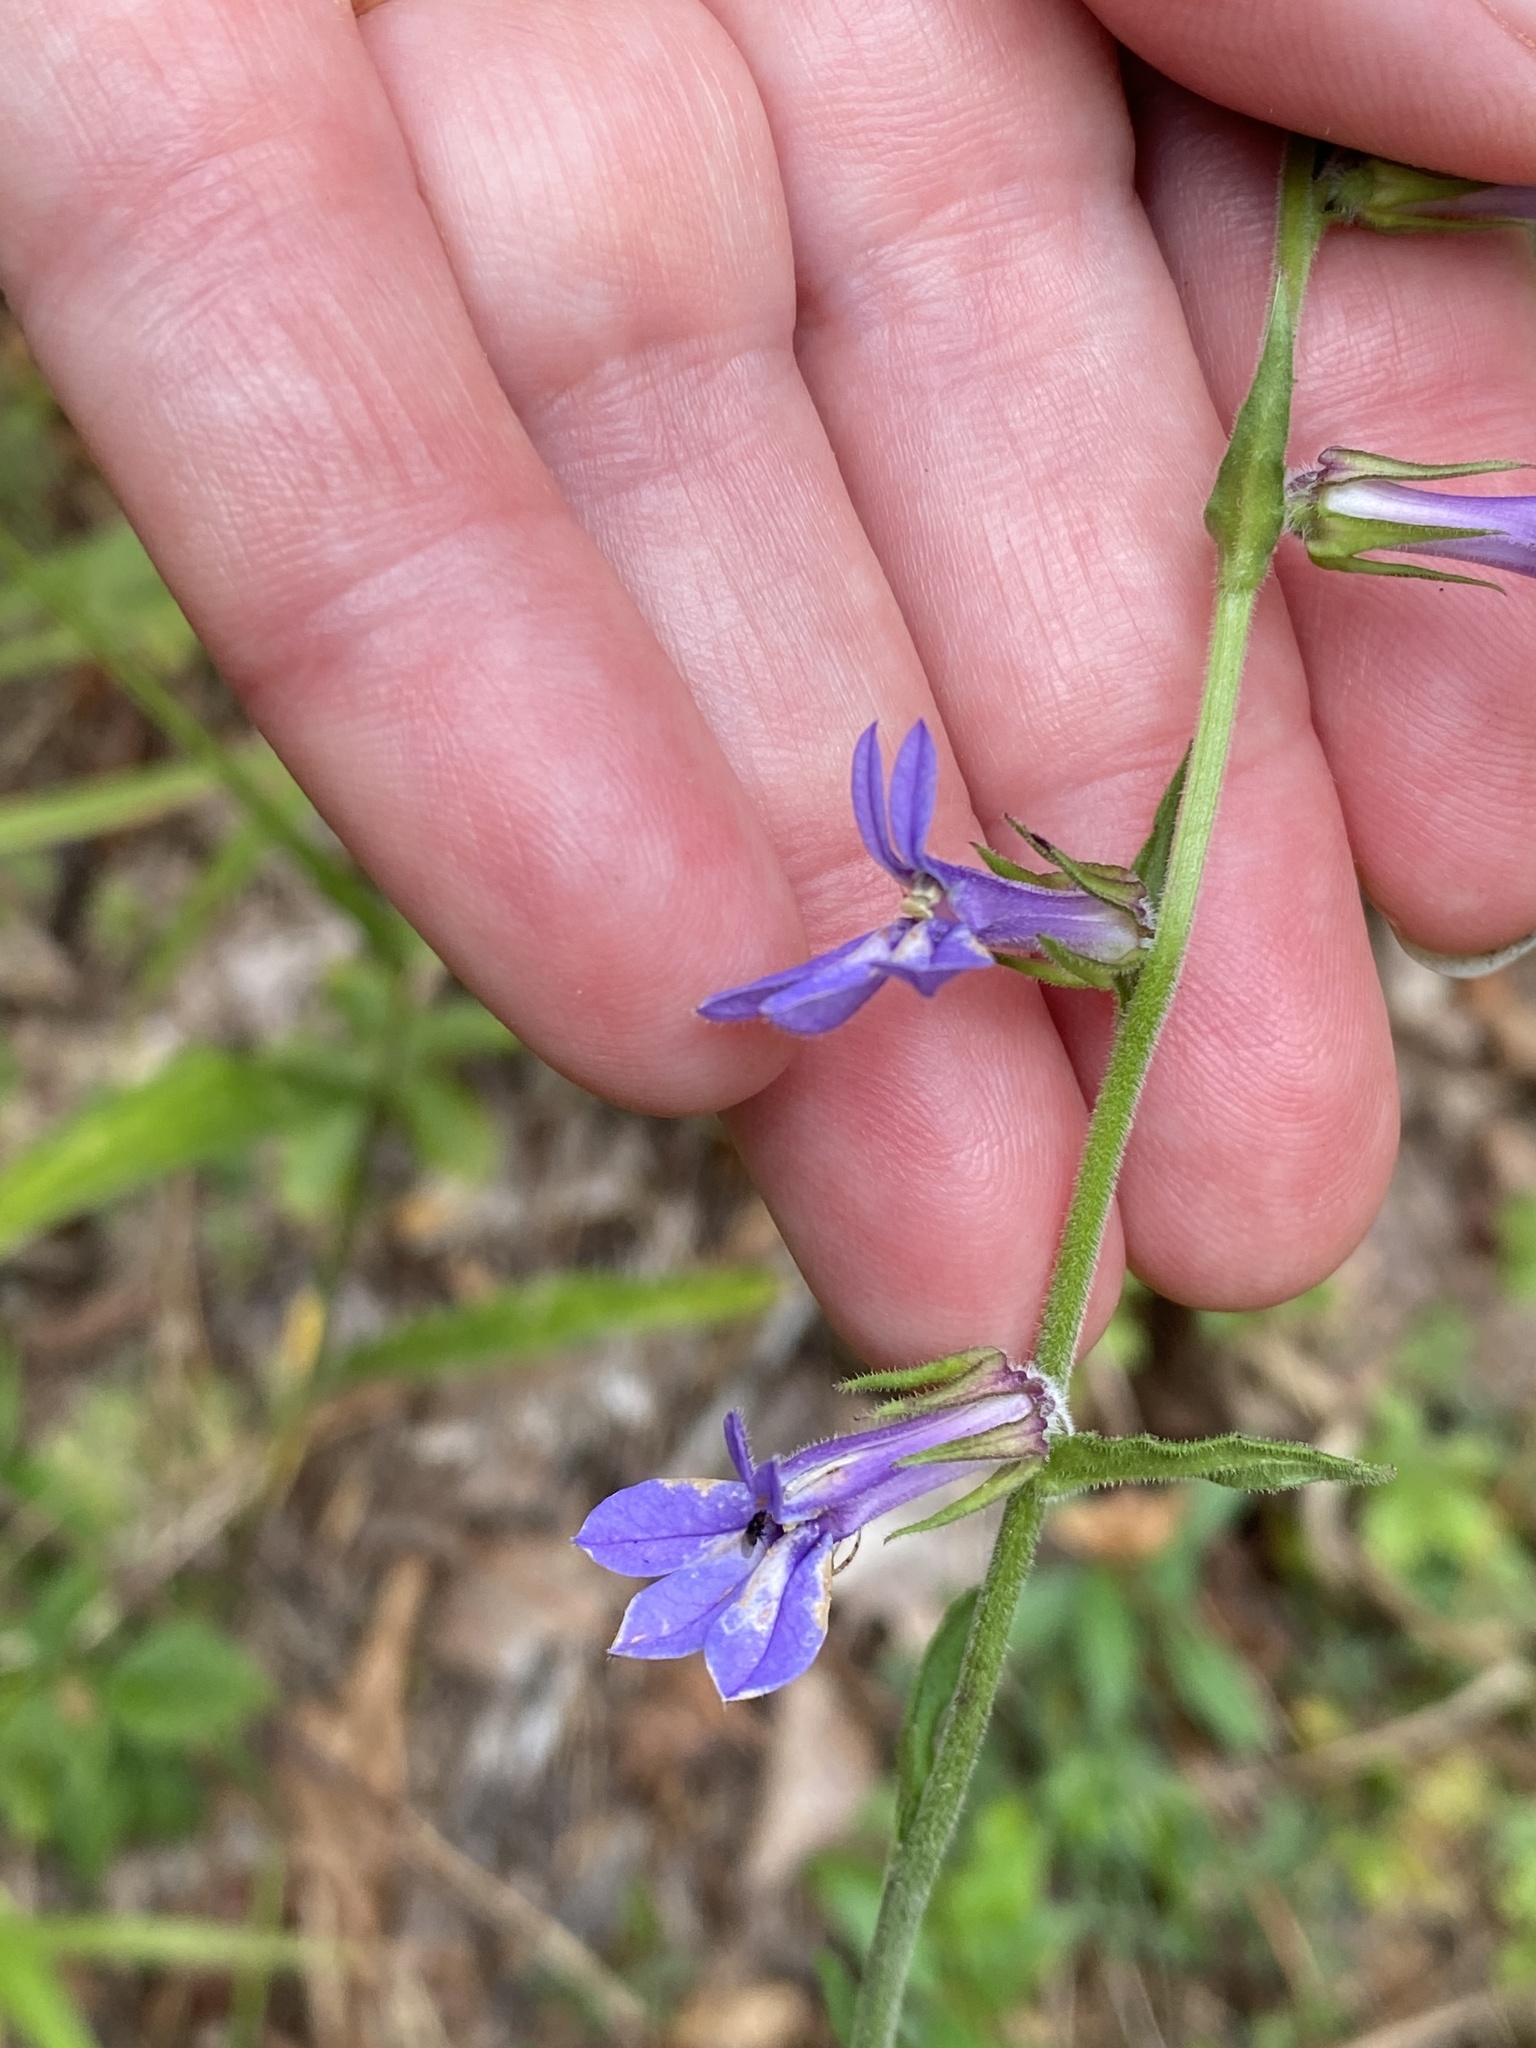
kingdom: Plantae
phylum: Tracheophyta
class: Magnoliopsida
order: Asterales
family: Campanulaceae
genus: Lobelia
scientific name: Lobelia puberula
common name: Purple dewdrop
